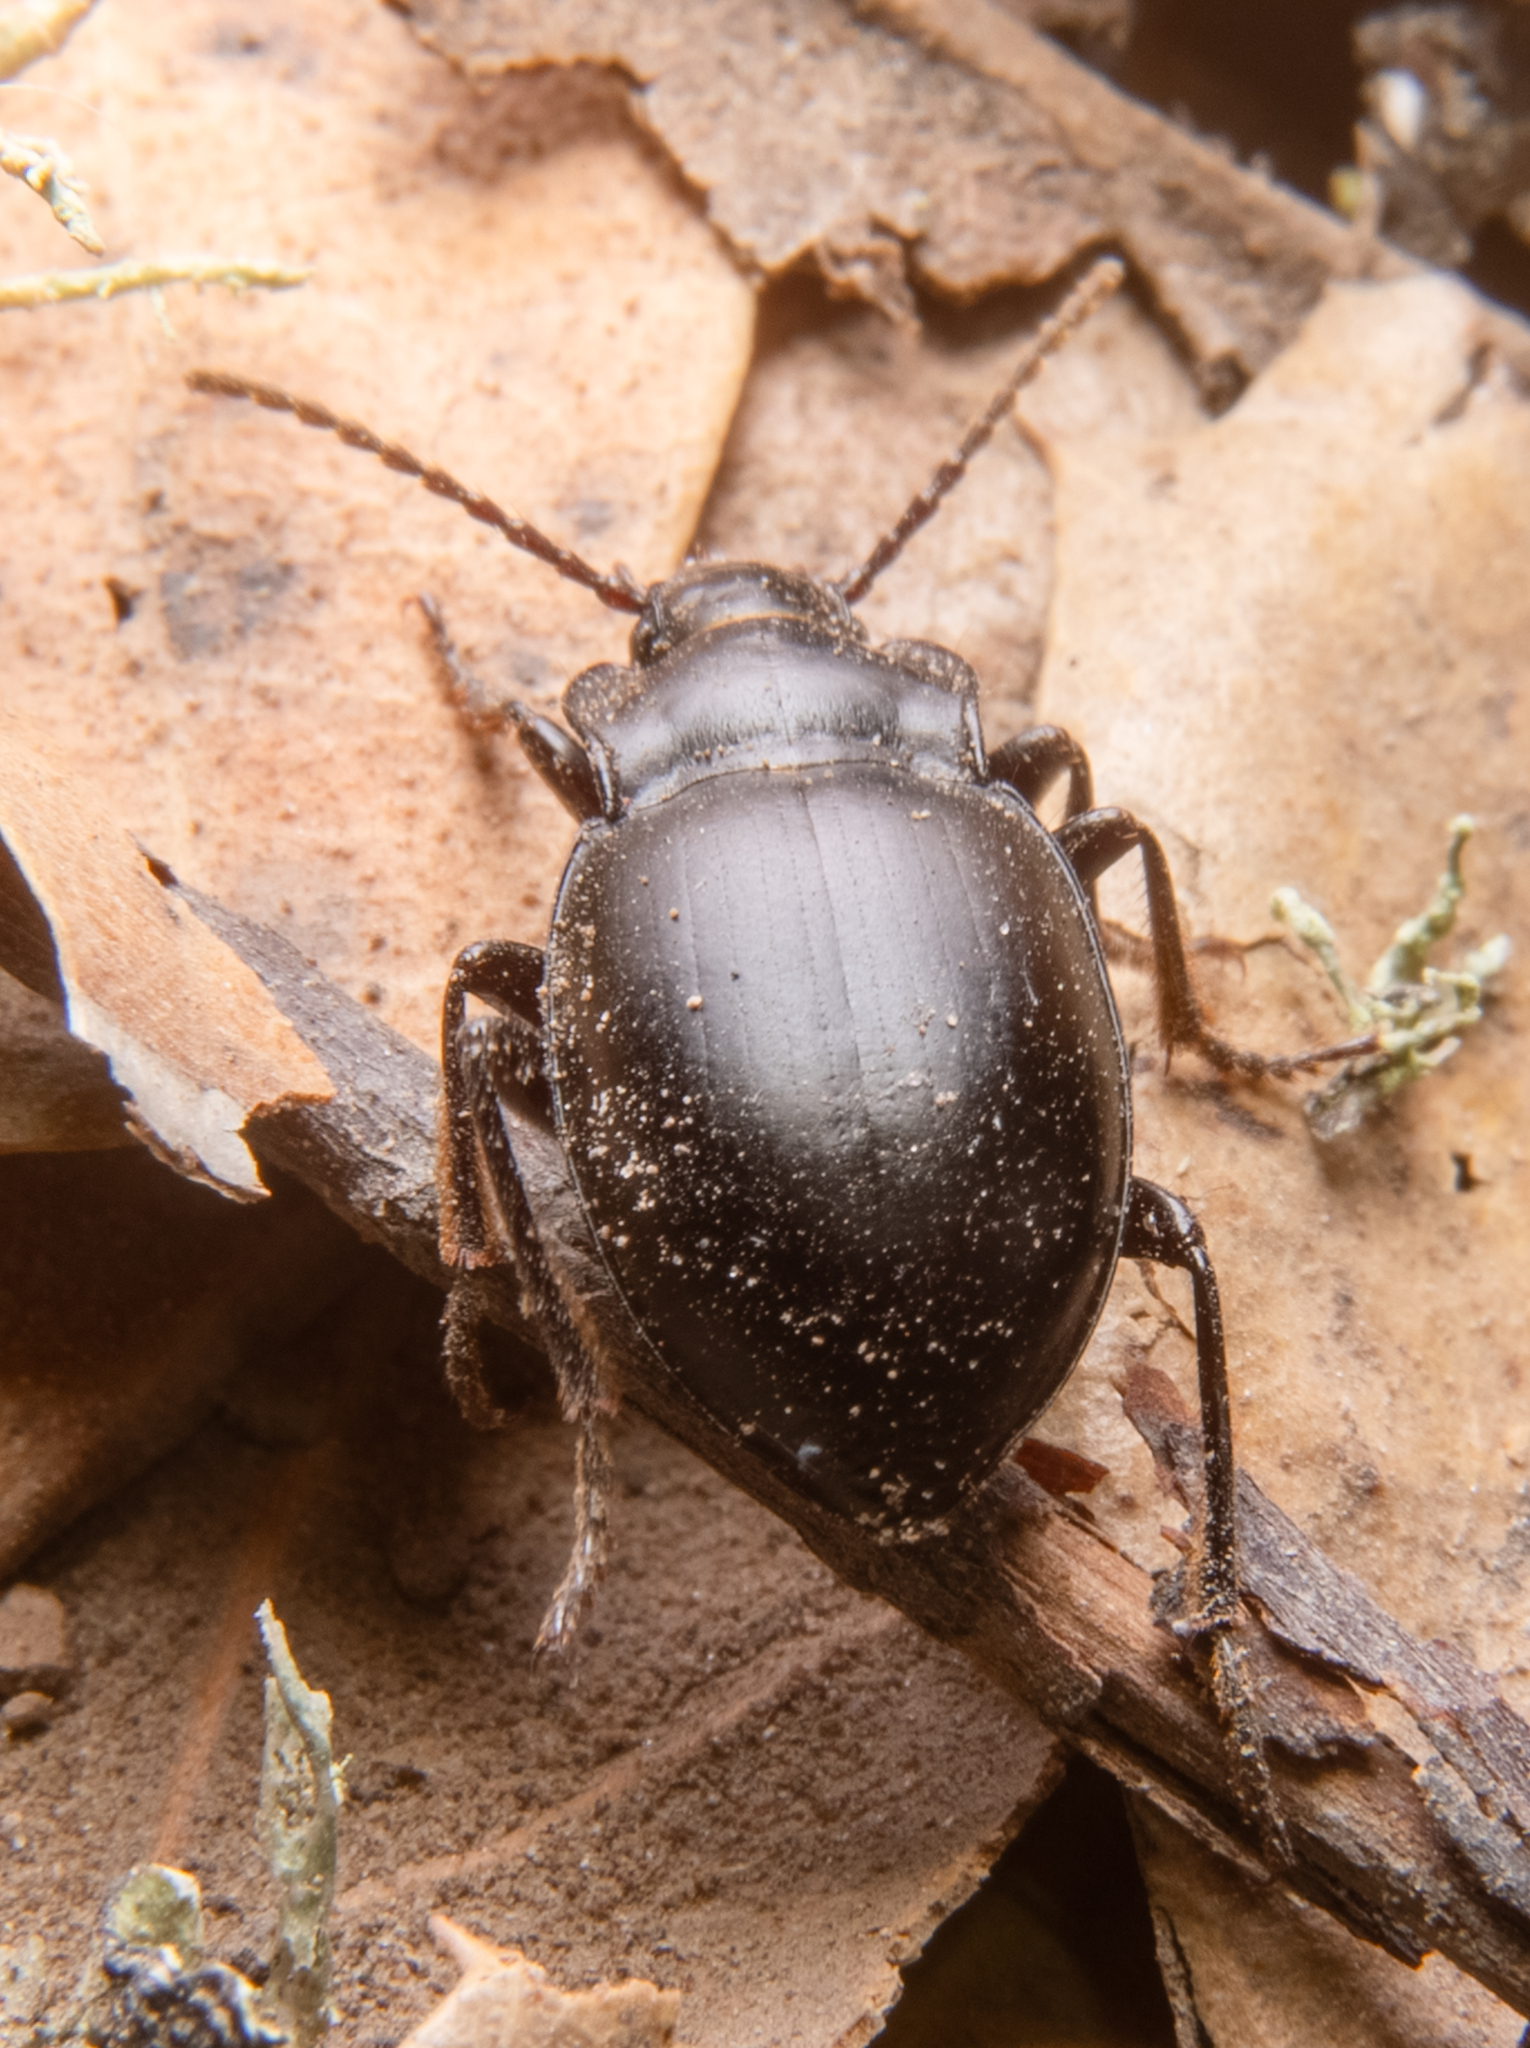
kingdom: Animalia
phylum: Arthropoda
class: Insecta
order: Coleoptera
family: Carabidae
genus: Metrius
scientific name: Metrius contractus
